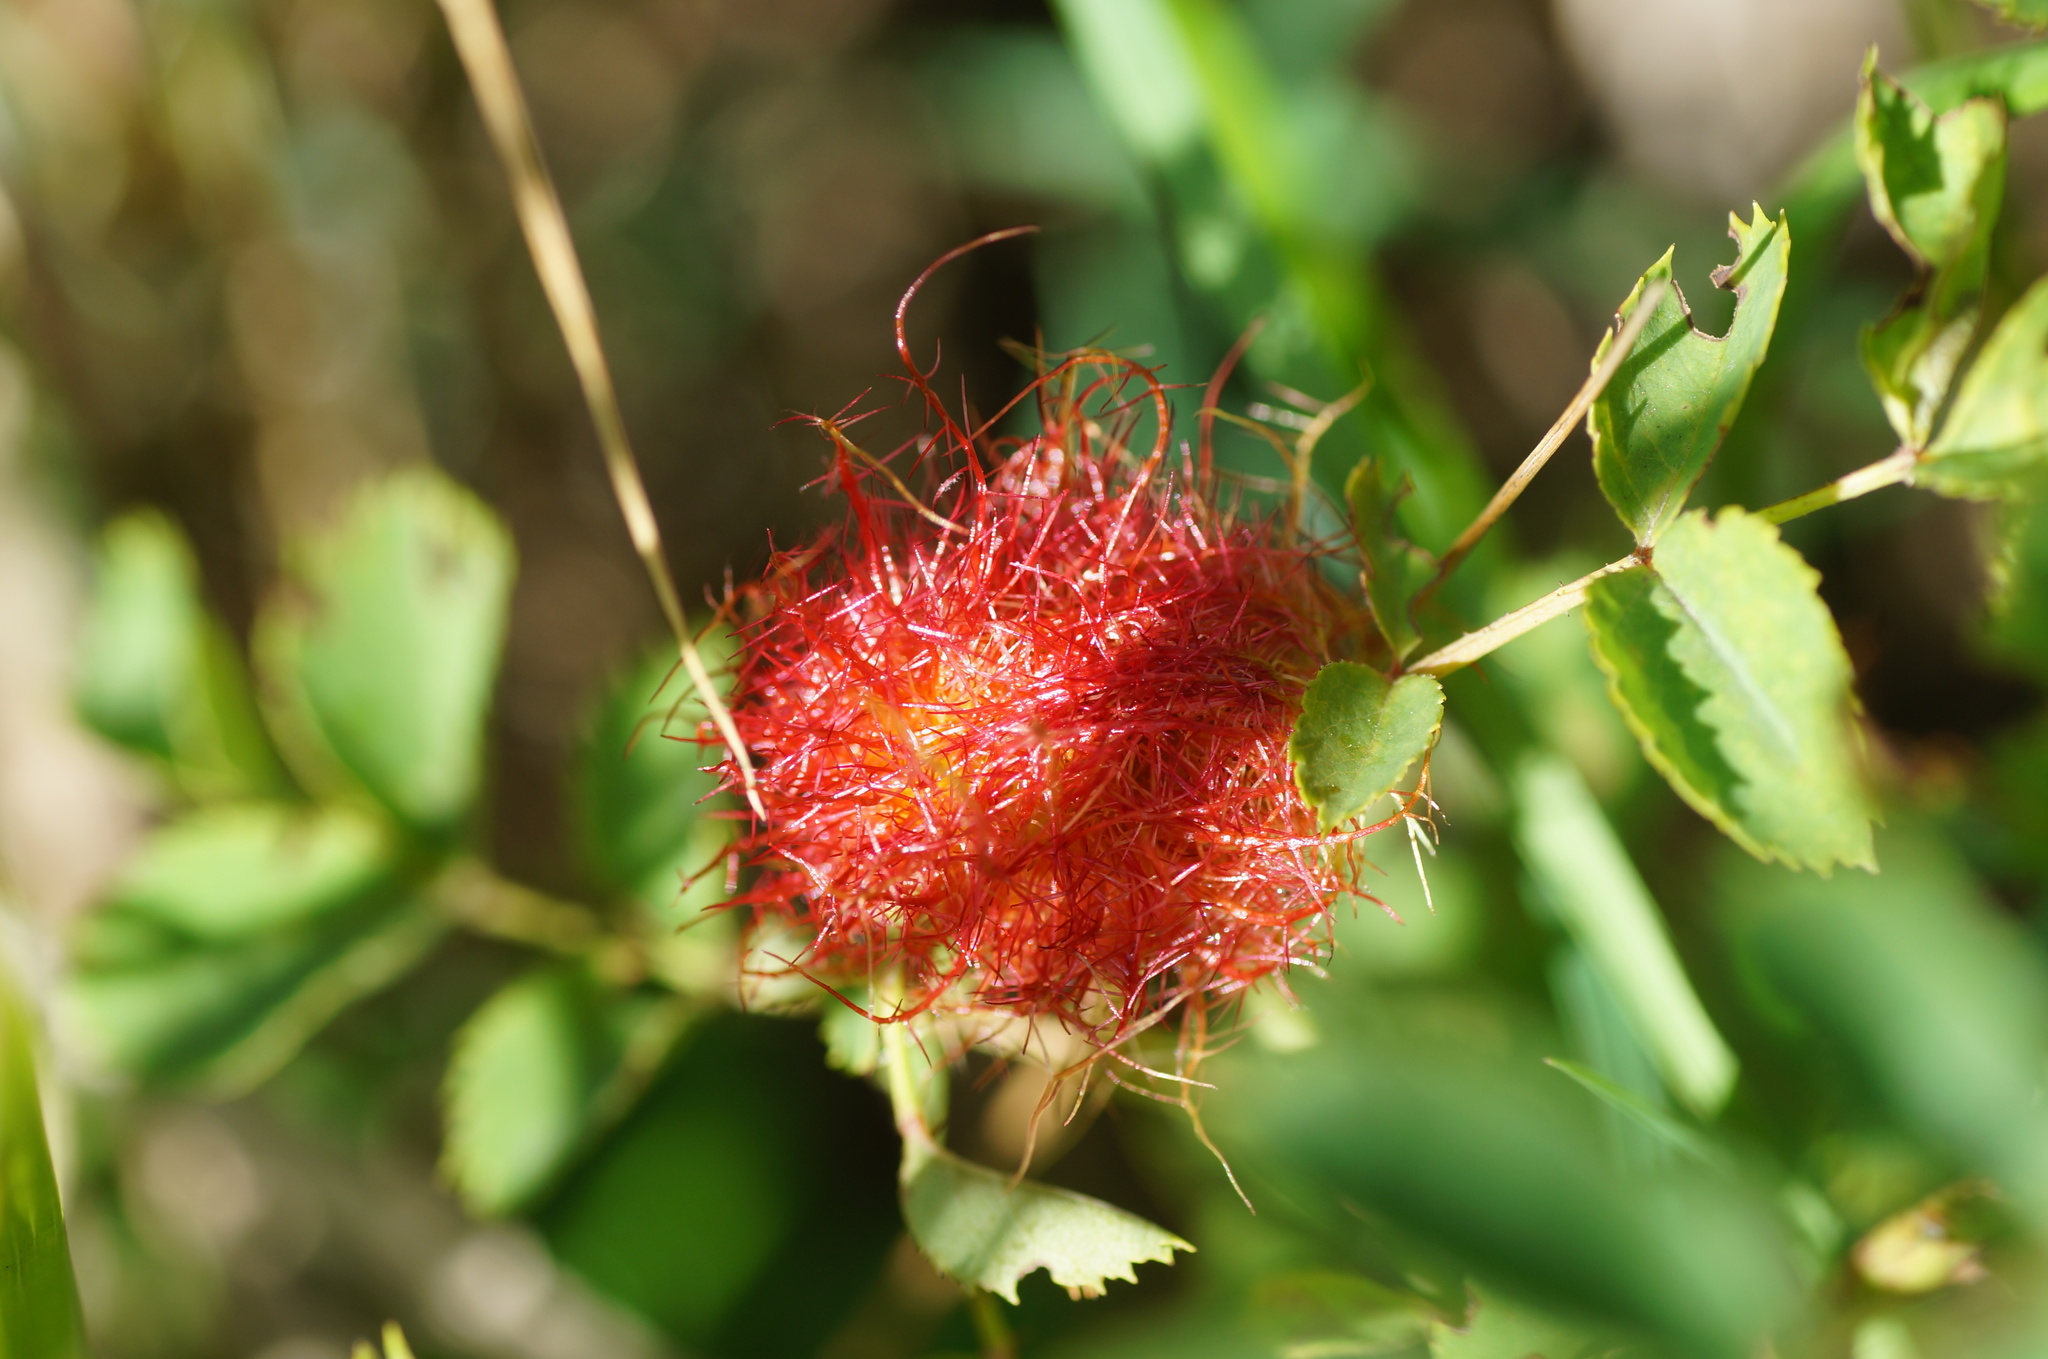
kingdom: Animalia
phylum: Arthropoda
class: Insecta
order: Hymenoptera
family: Cynipidae
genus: Diplolepis
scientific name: Diplolepis rosae
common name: Bedeguar gall
